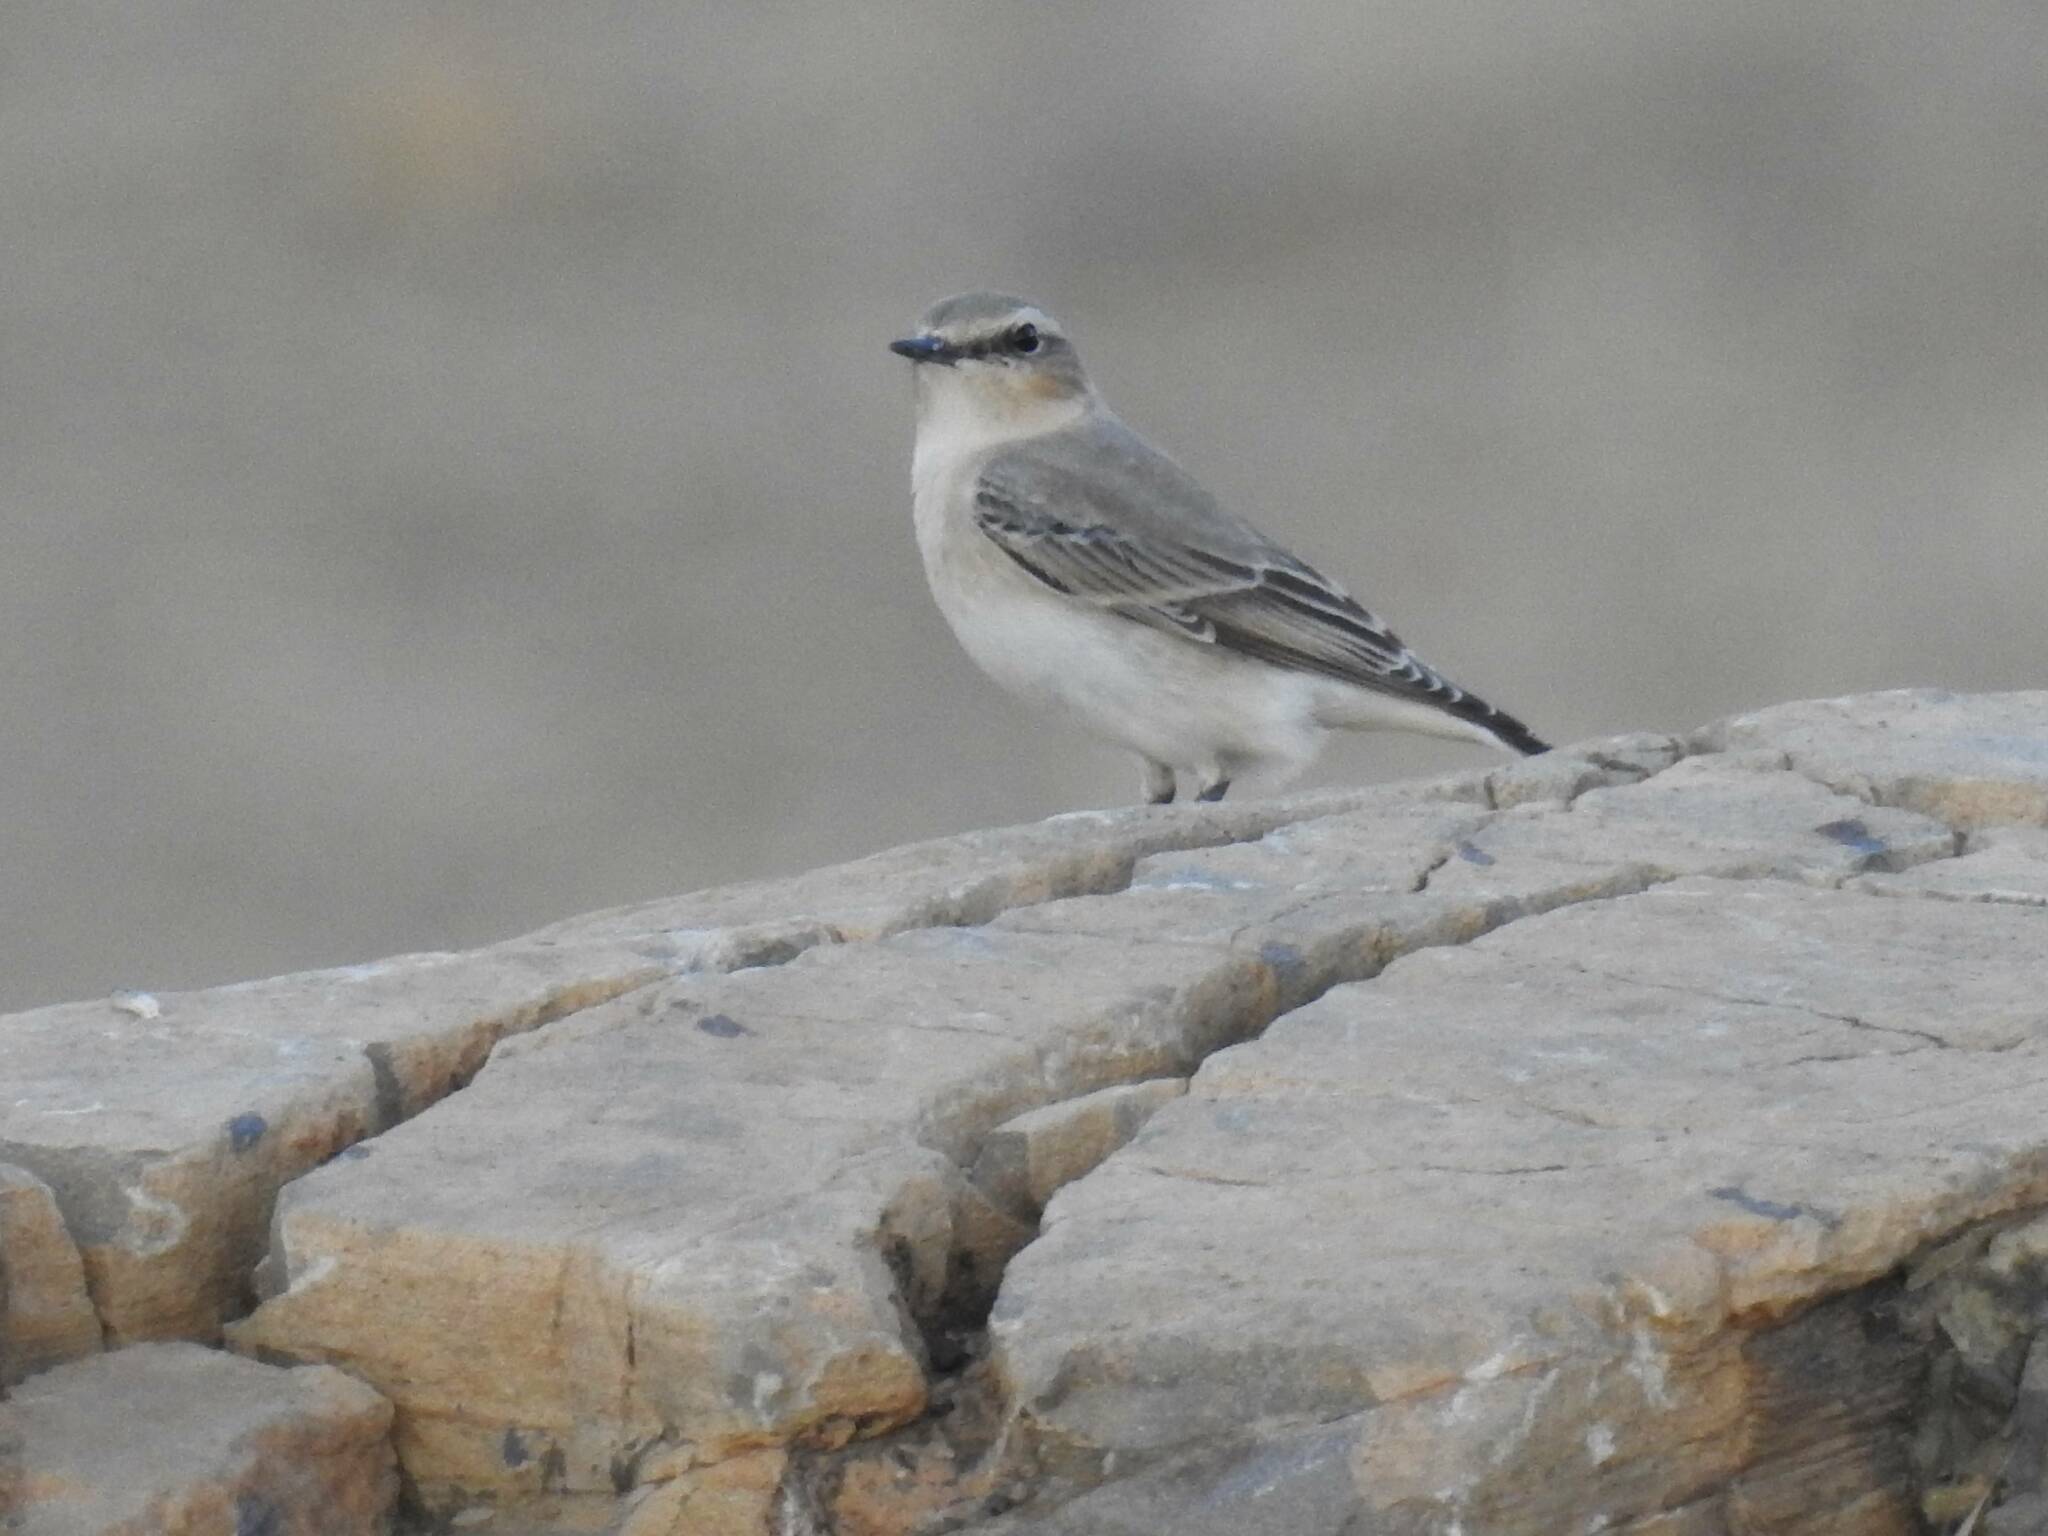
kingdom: Animalia
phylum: Chordata
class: Aves
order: Passeriformes
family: Muscicapidae
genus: Oenanthe
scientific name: Oenanthe oenanthe
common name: Northern wheatear
